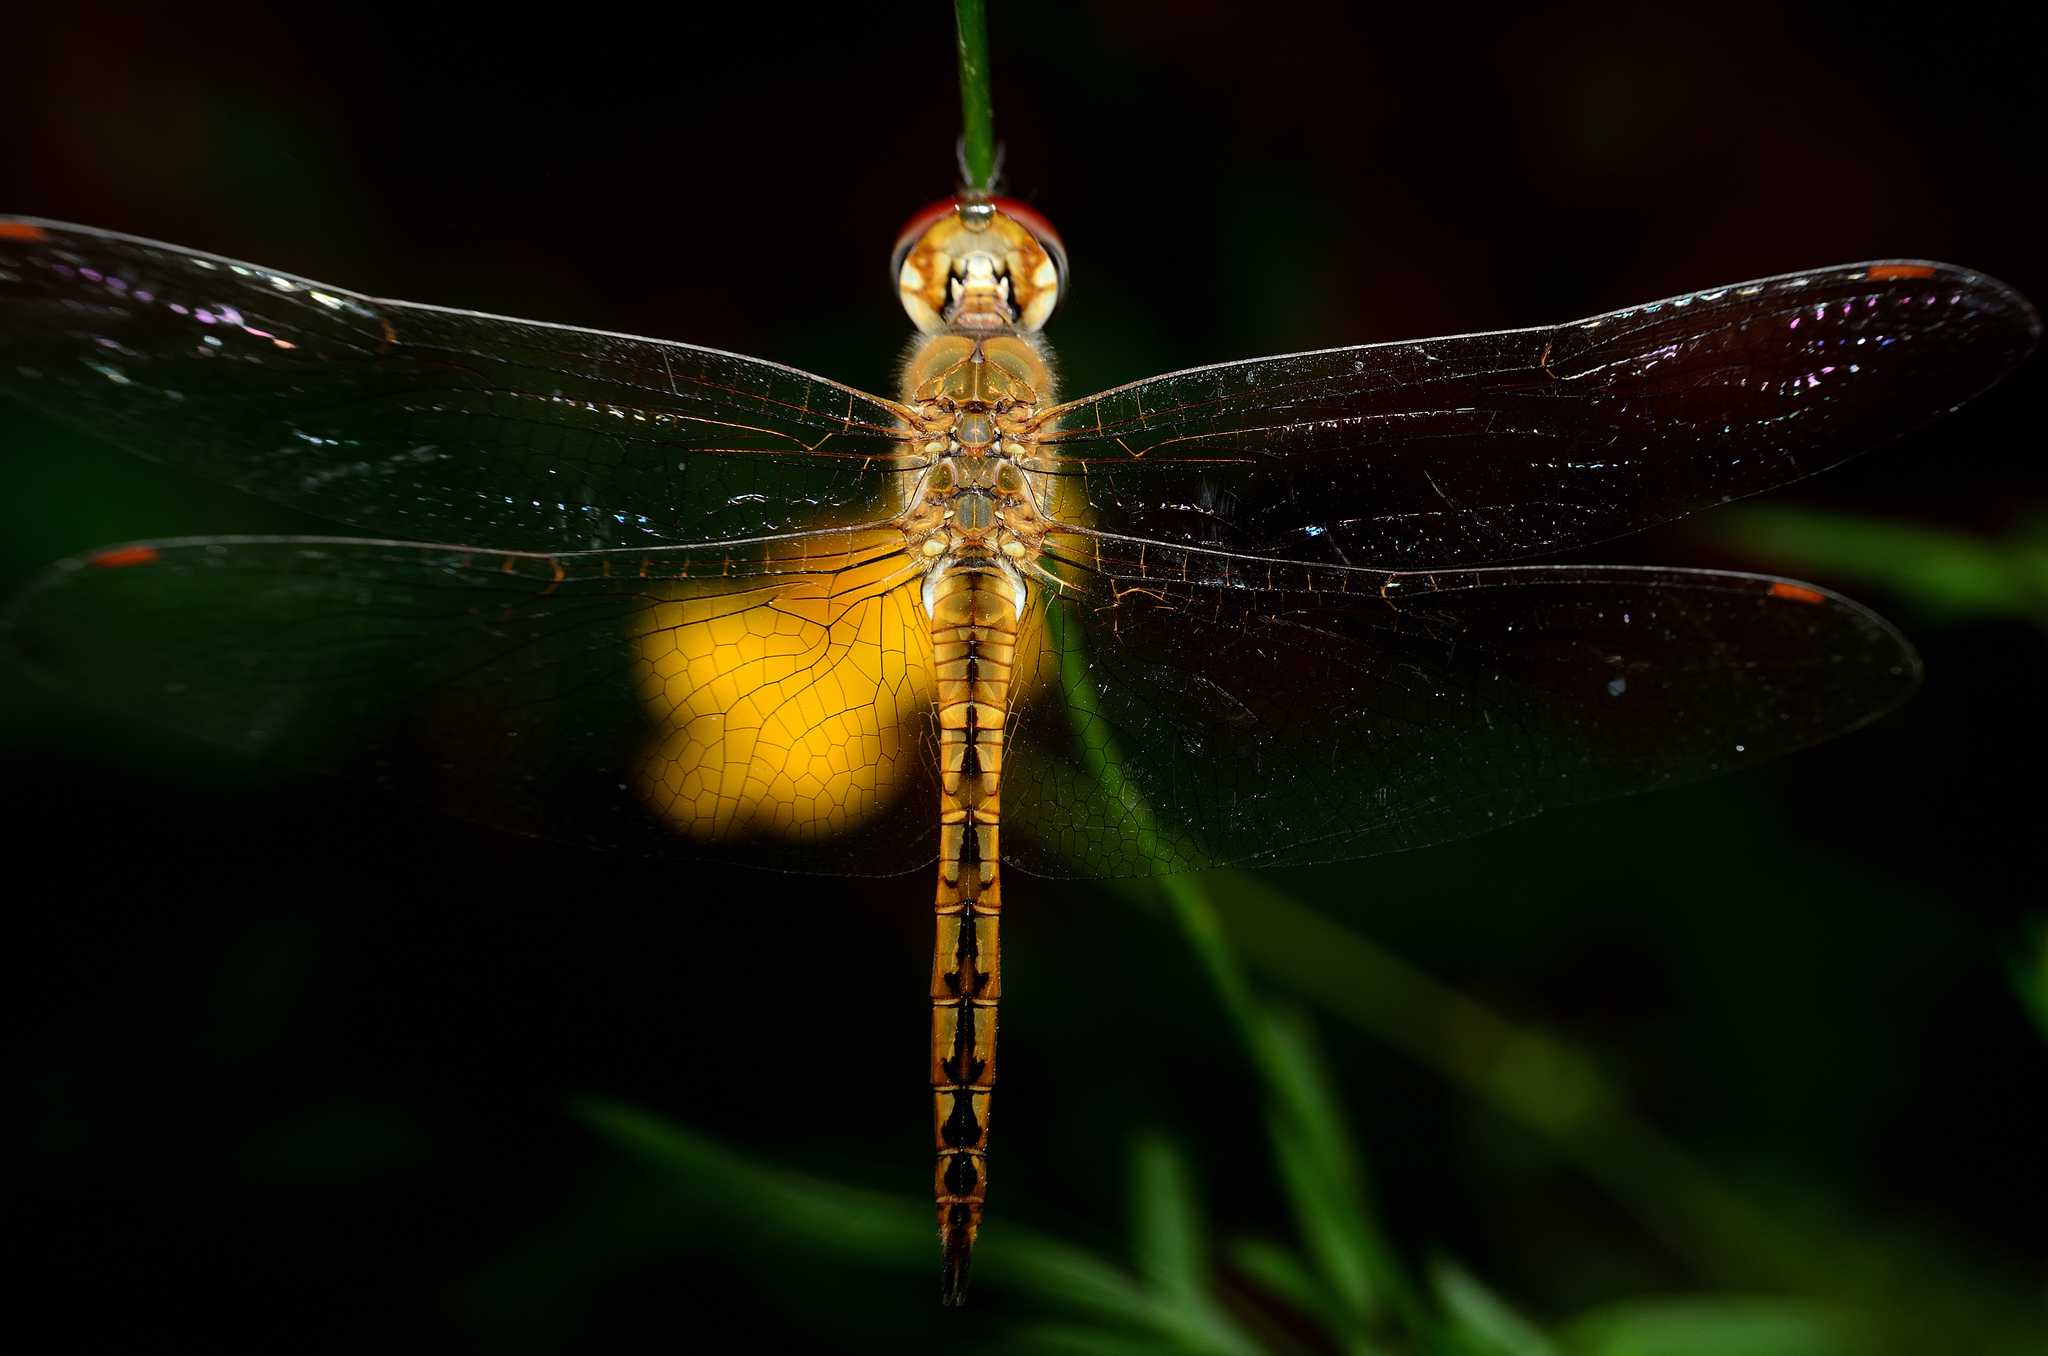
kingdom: Animalia
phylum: Arthropoda
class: Insecta
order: Odonata
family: Libellulidae
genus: Pantala
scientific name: Pantala flavescens
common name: Wandering glider
